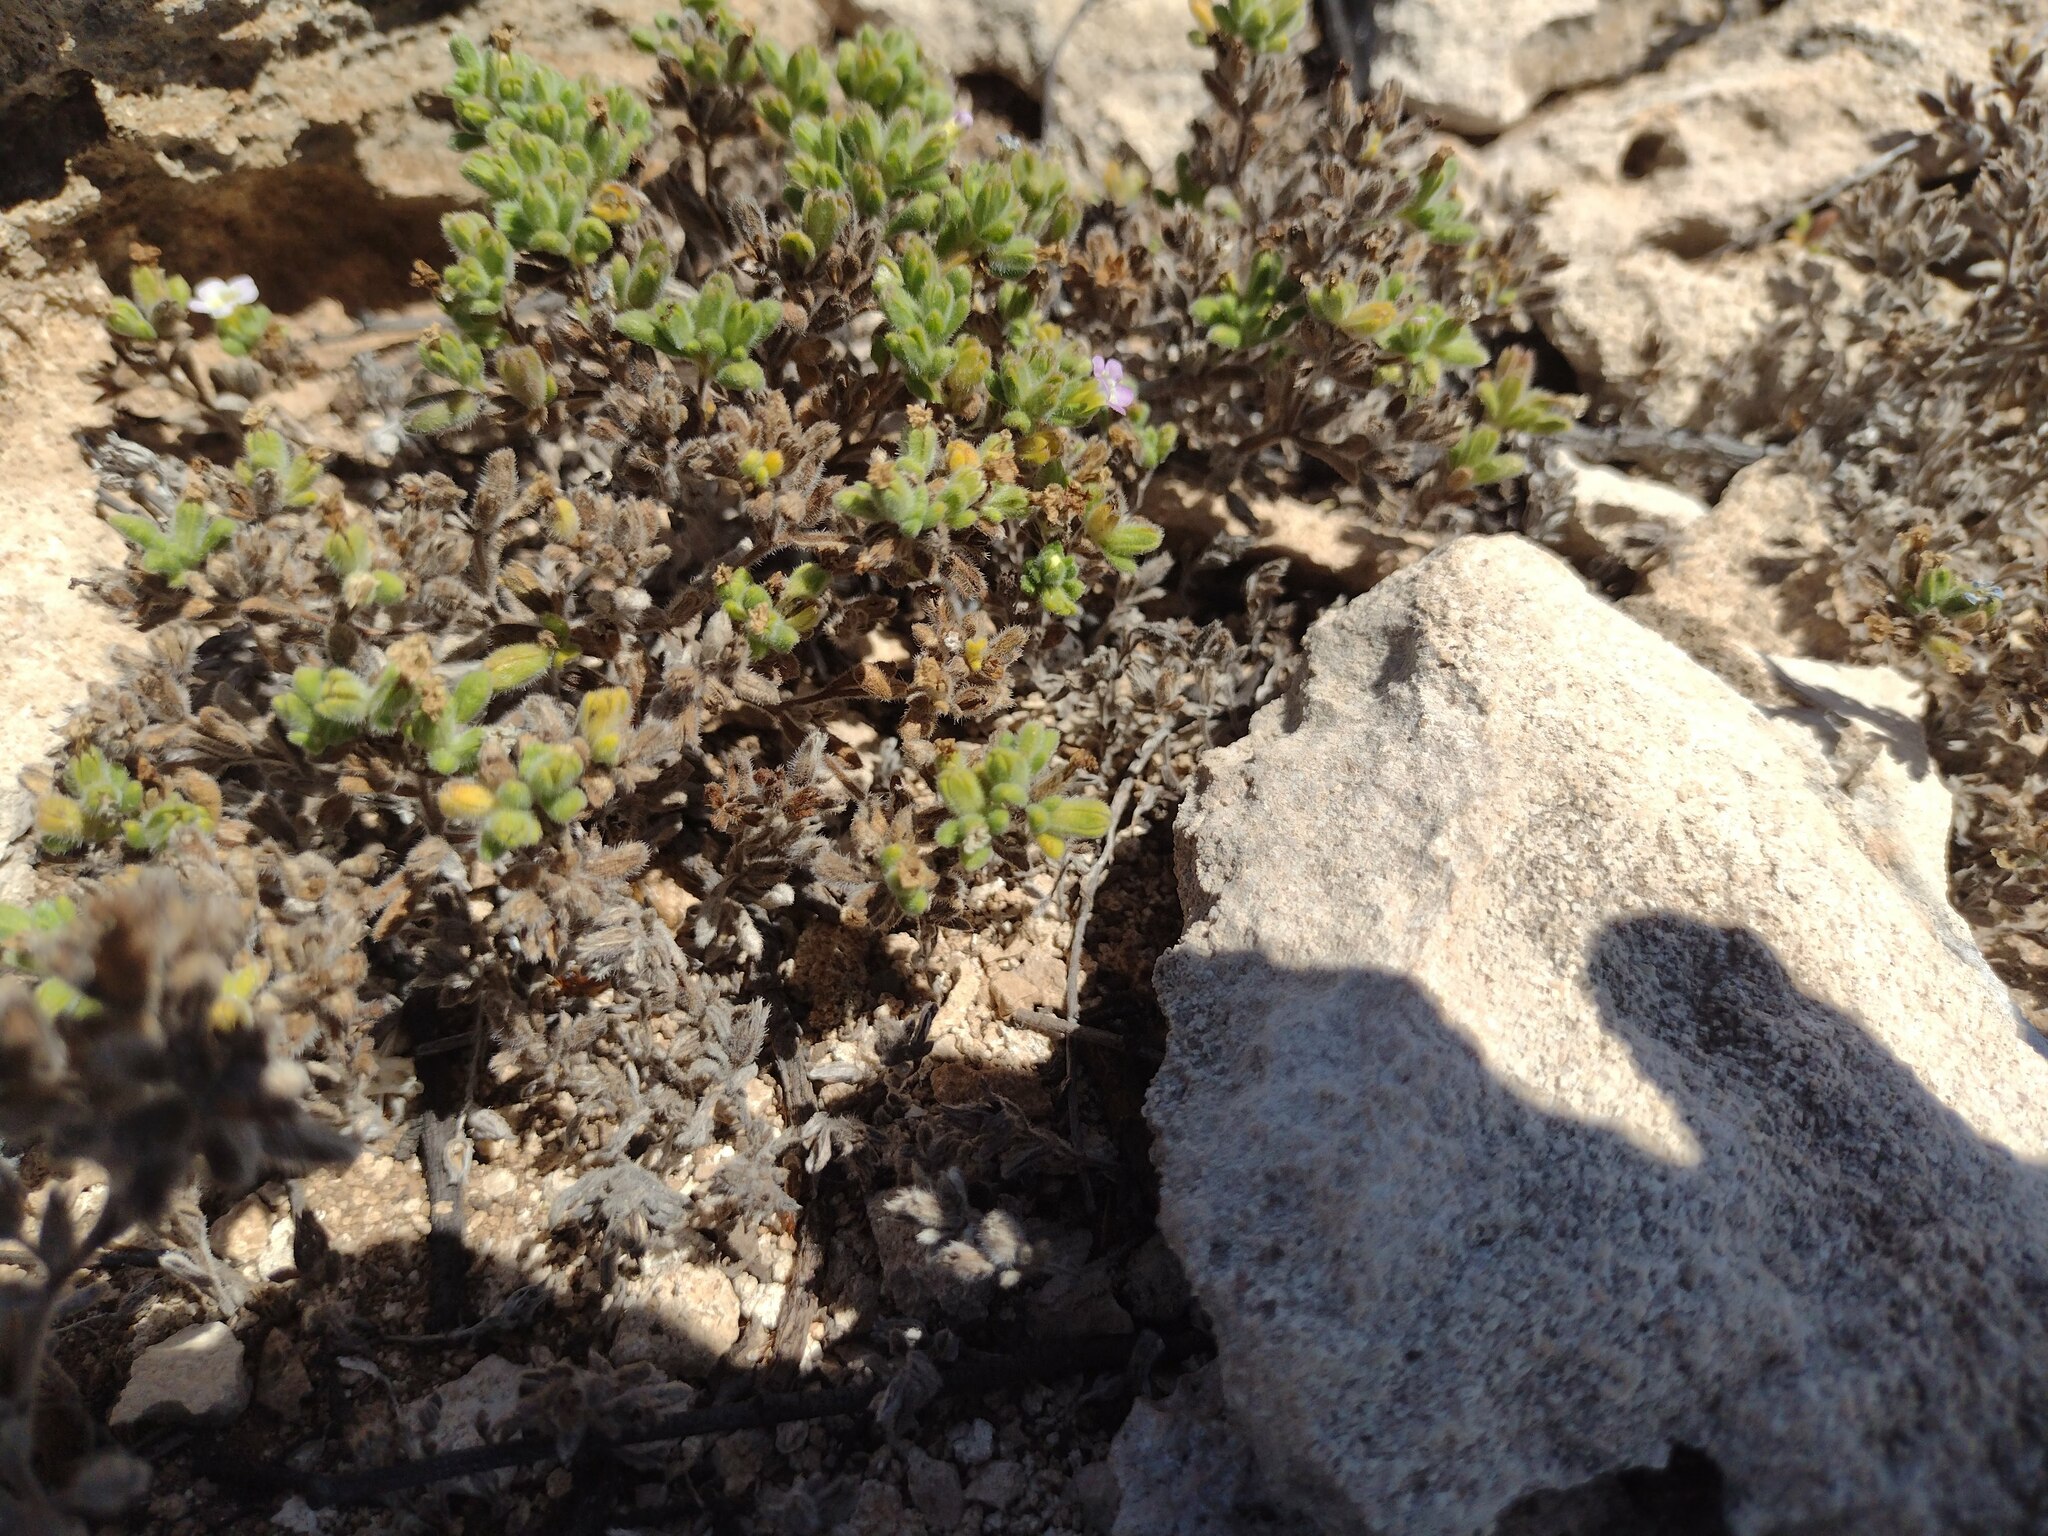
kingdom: Plantae
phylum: Tracheophyta
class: Magnoliopsida
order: Boraginales
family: Namaceae
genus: Nama
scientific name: Nama sandwicense
